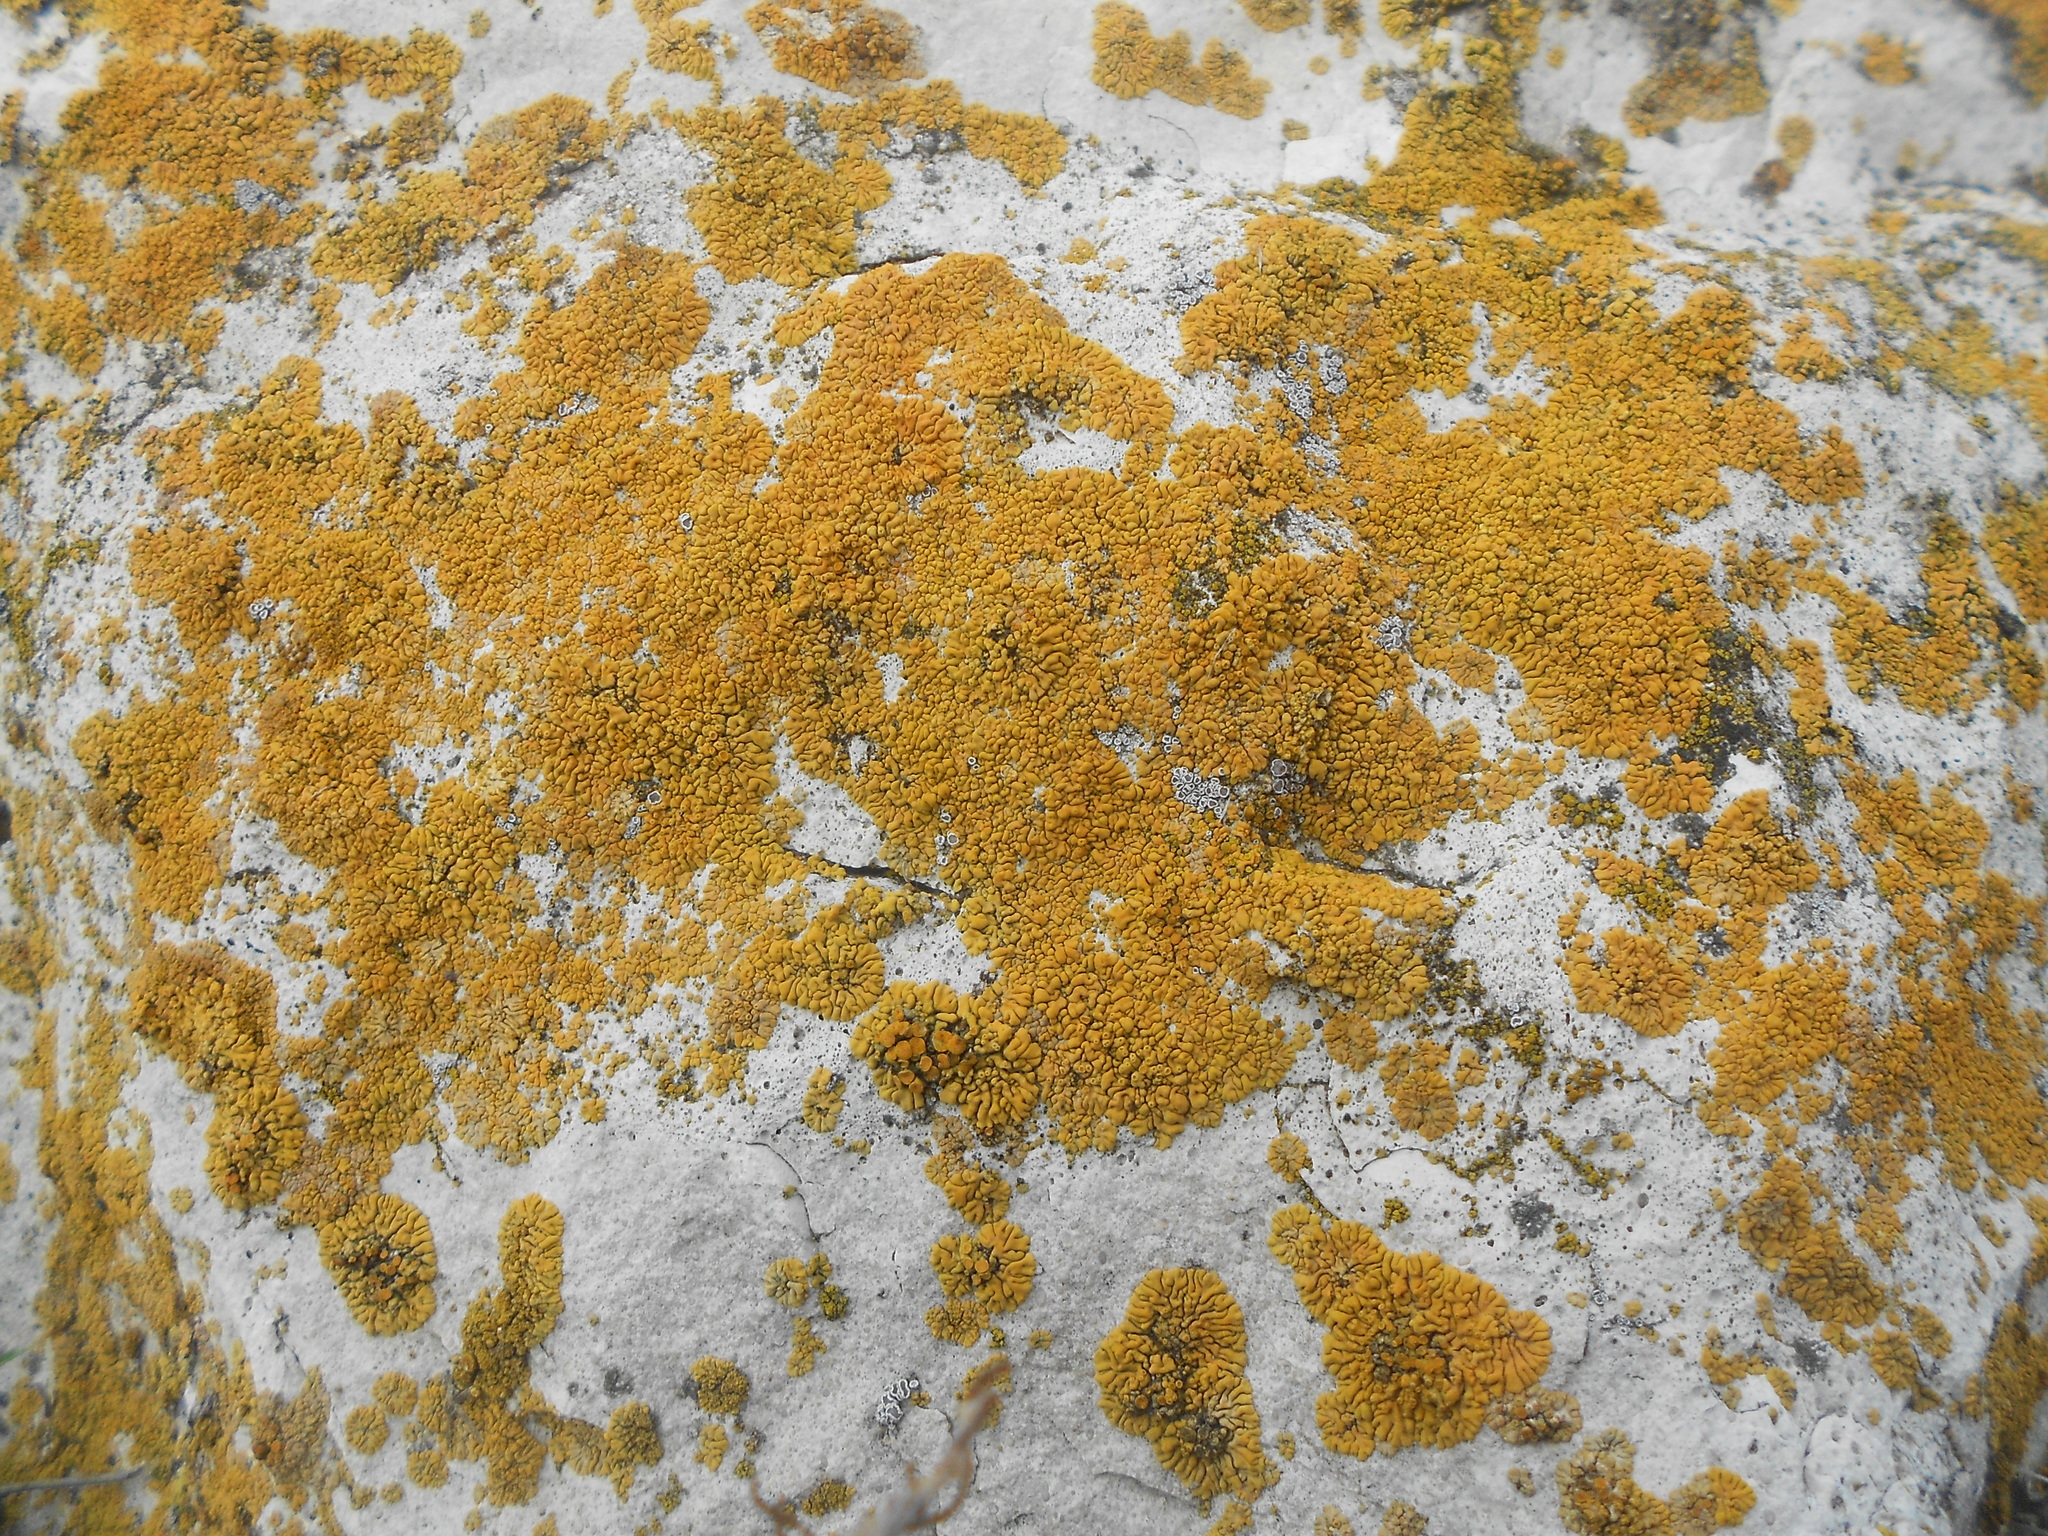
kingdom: Fungi
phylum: Ascomycota
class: Lecanoromycetes
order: Teloschistales
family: Teloschistaceae
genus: Calogaya
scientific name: Calogaya saxicola
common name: Rock jewel lichen
